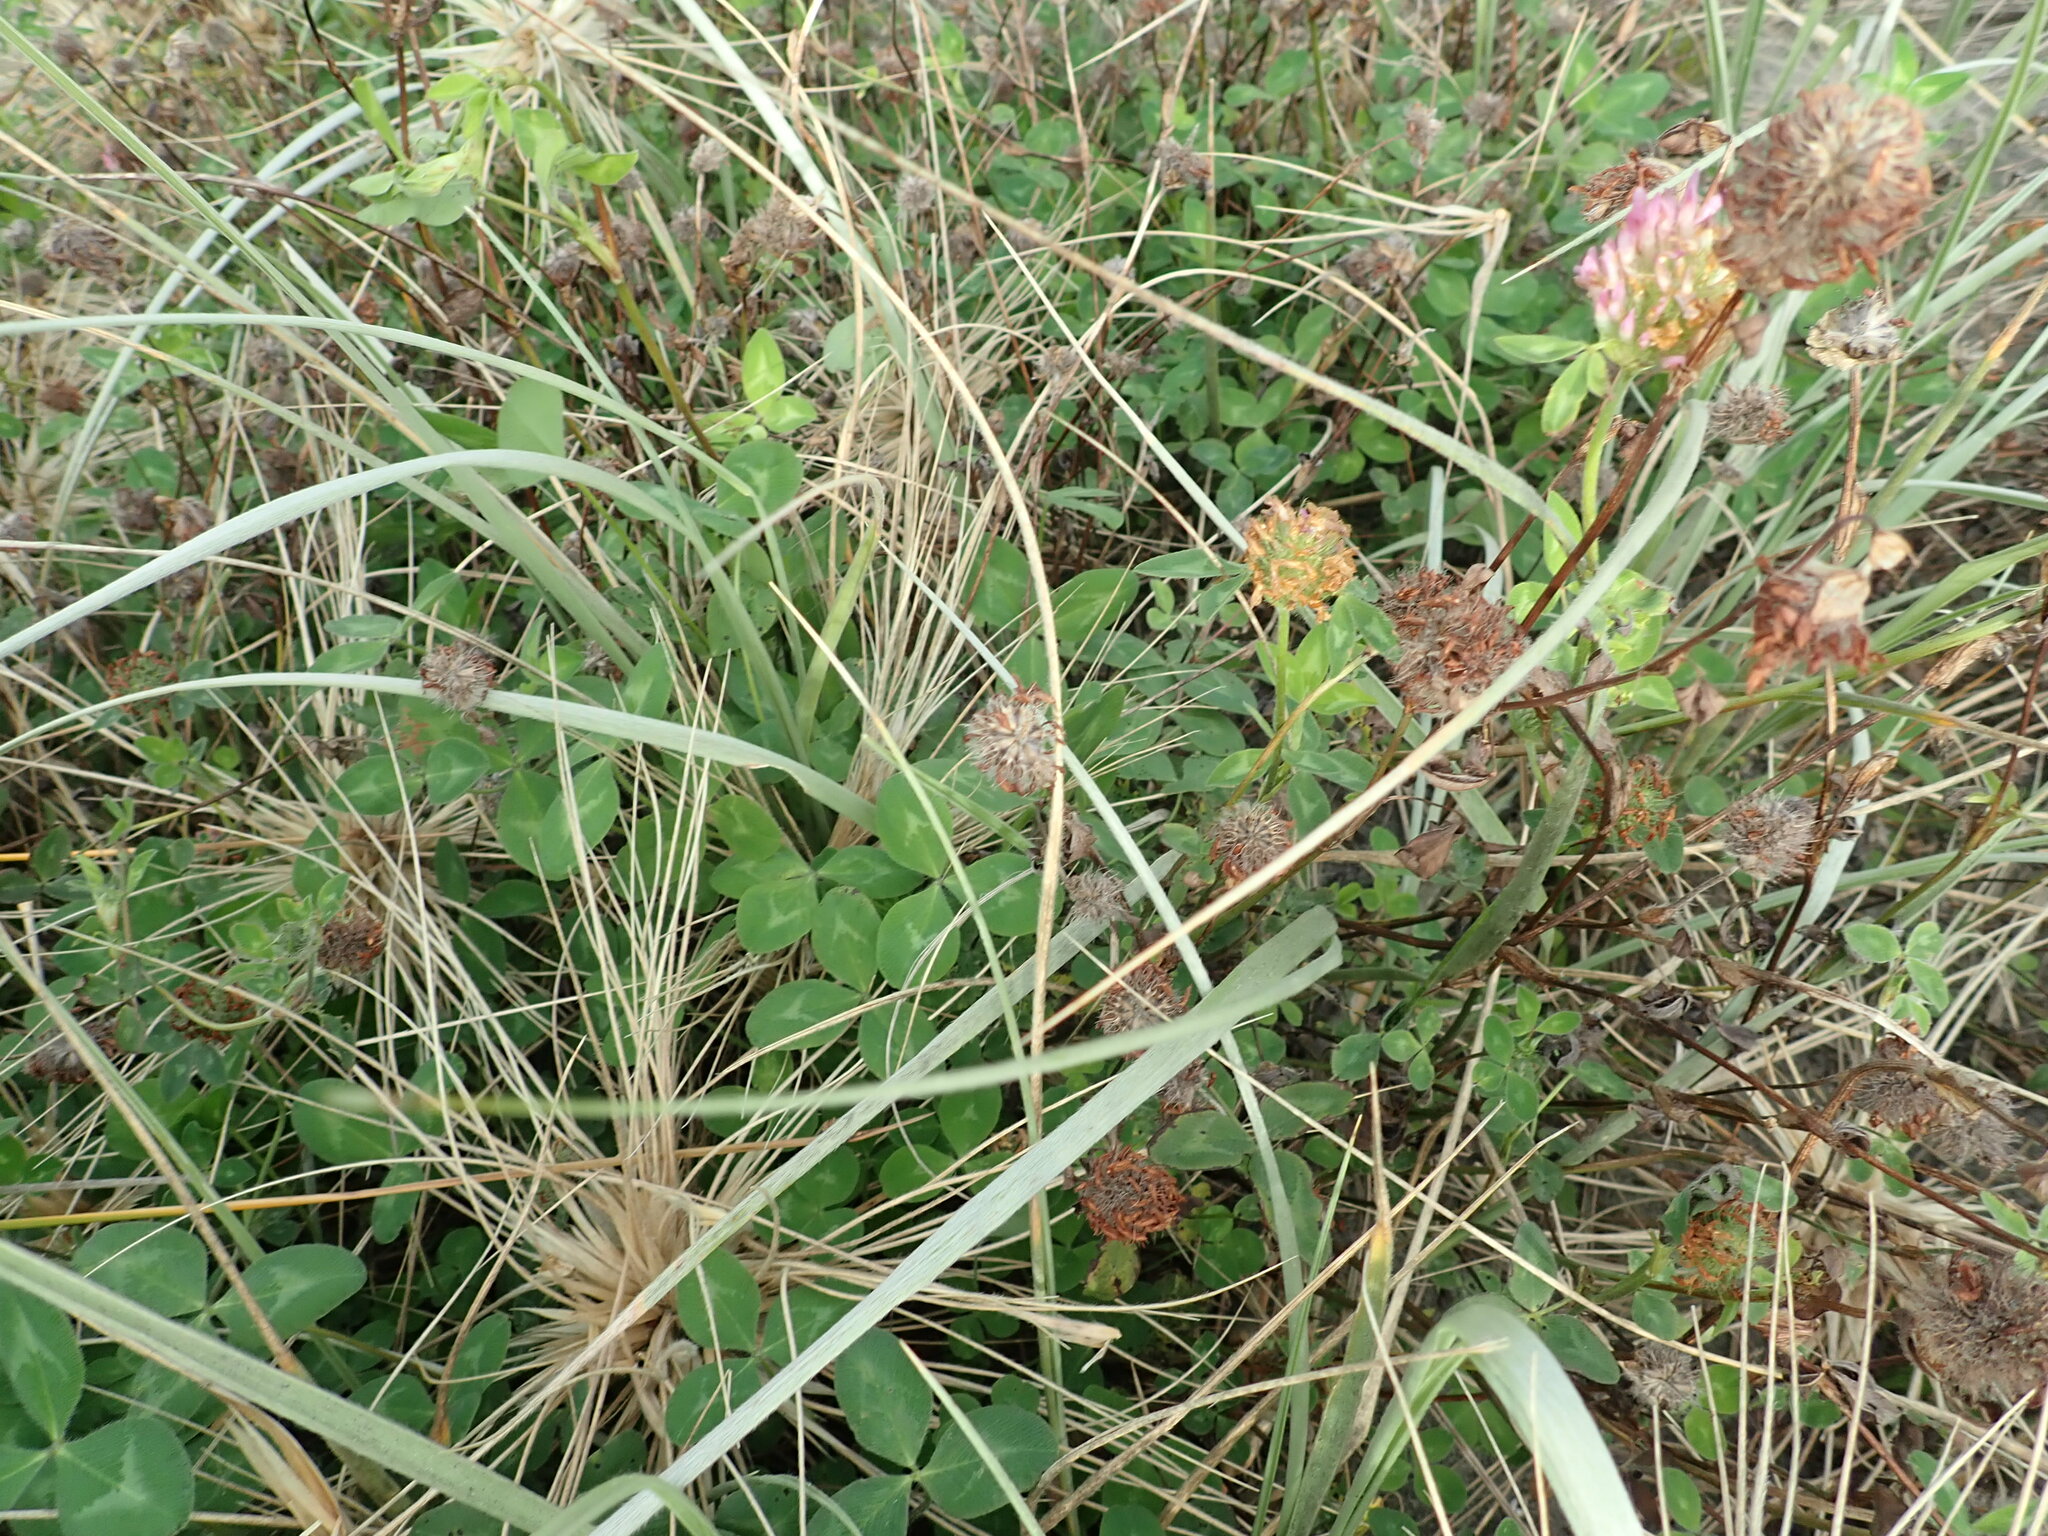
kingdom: Plantae
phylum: Tracheophyta
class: Magnoliopsida
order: Fabales
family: Fabaceae
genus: Trifolium
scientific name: Trifolium pratense
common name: Red clover
